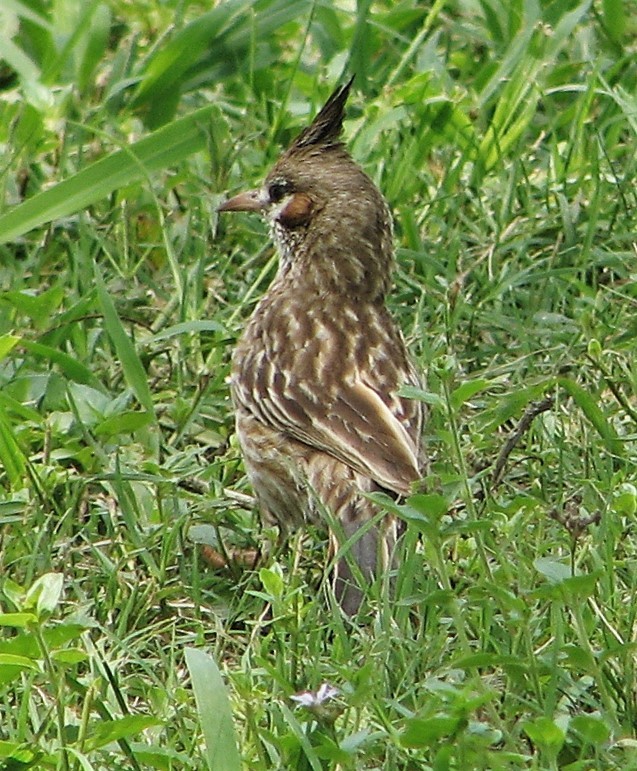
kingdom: Animalia
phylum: Chordata
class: Aves
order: Passeriformes
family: Furnariidae
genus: Coryphistera
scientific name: Coryphistera alaudina
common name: Lark-like brushrunner
